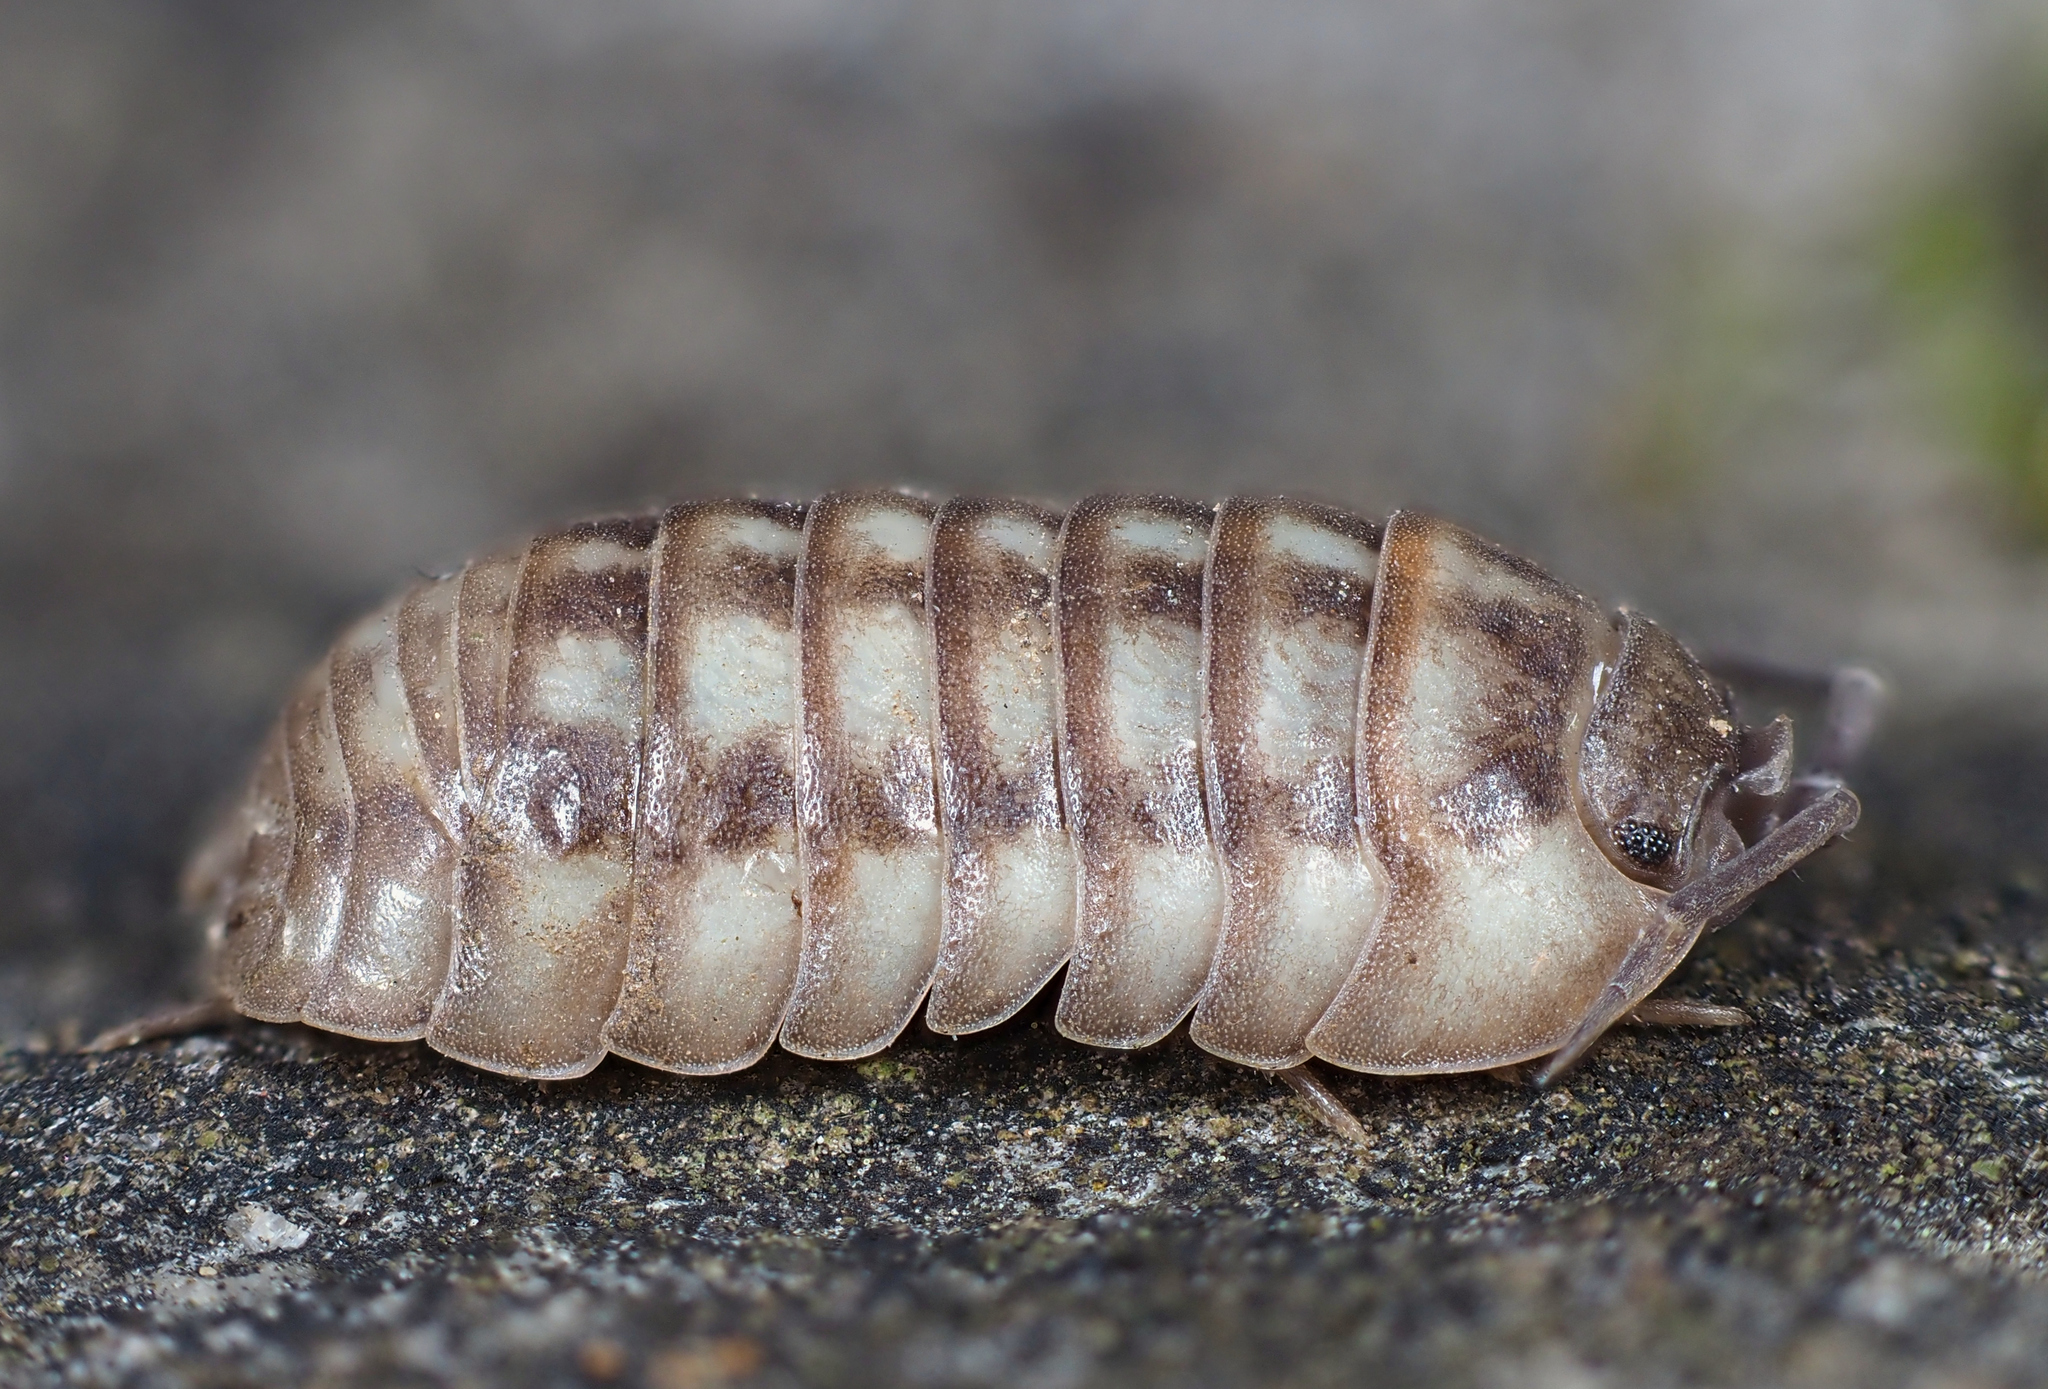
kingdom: Animalia
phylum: Arthropoda
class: Malacostraca
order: Isopoda
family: Armadillidiidae
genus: Armadillidium
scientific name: Armadillidium nasatum
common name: Isopod
